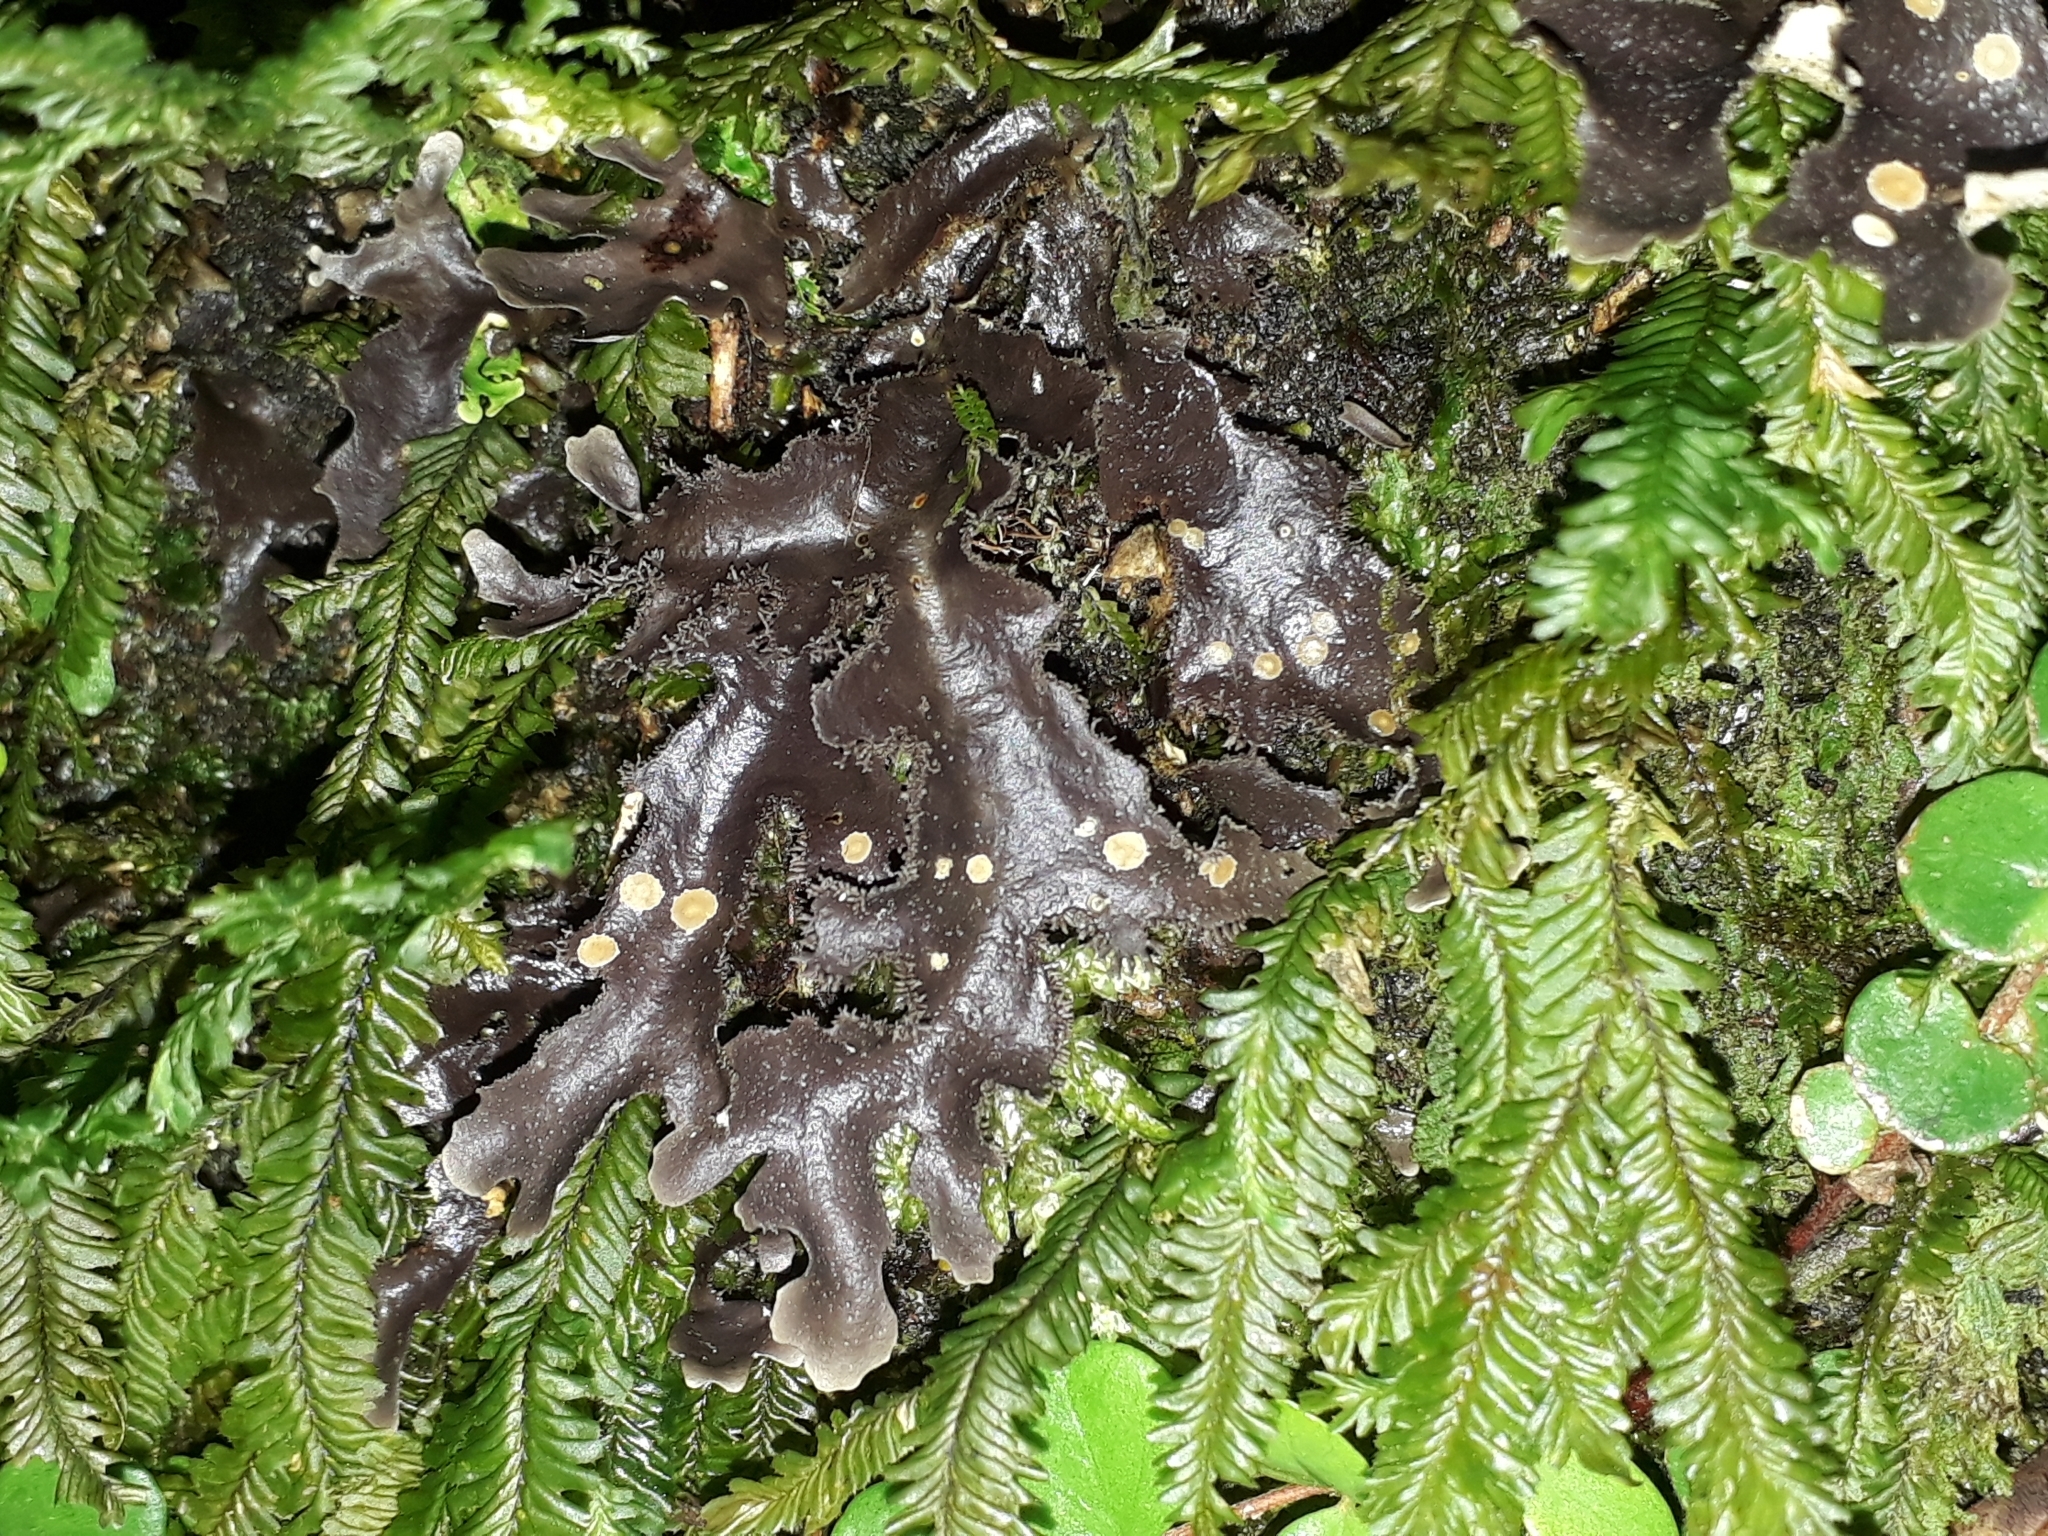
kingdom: Fungi
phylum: Ascomycota
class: Lecanoromycetes
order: Peltigerales
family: Lobariaceae
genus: Pseudocyphellaria
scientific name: Pseudocyphellaria dissimilis
